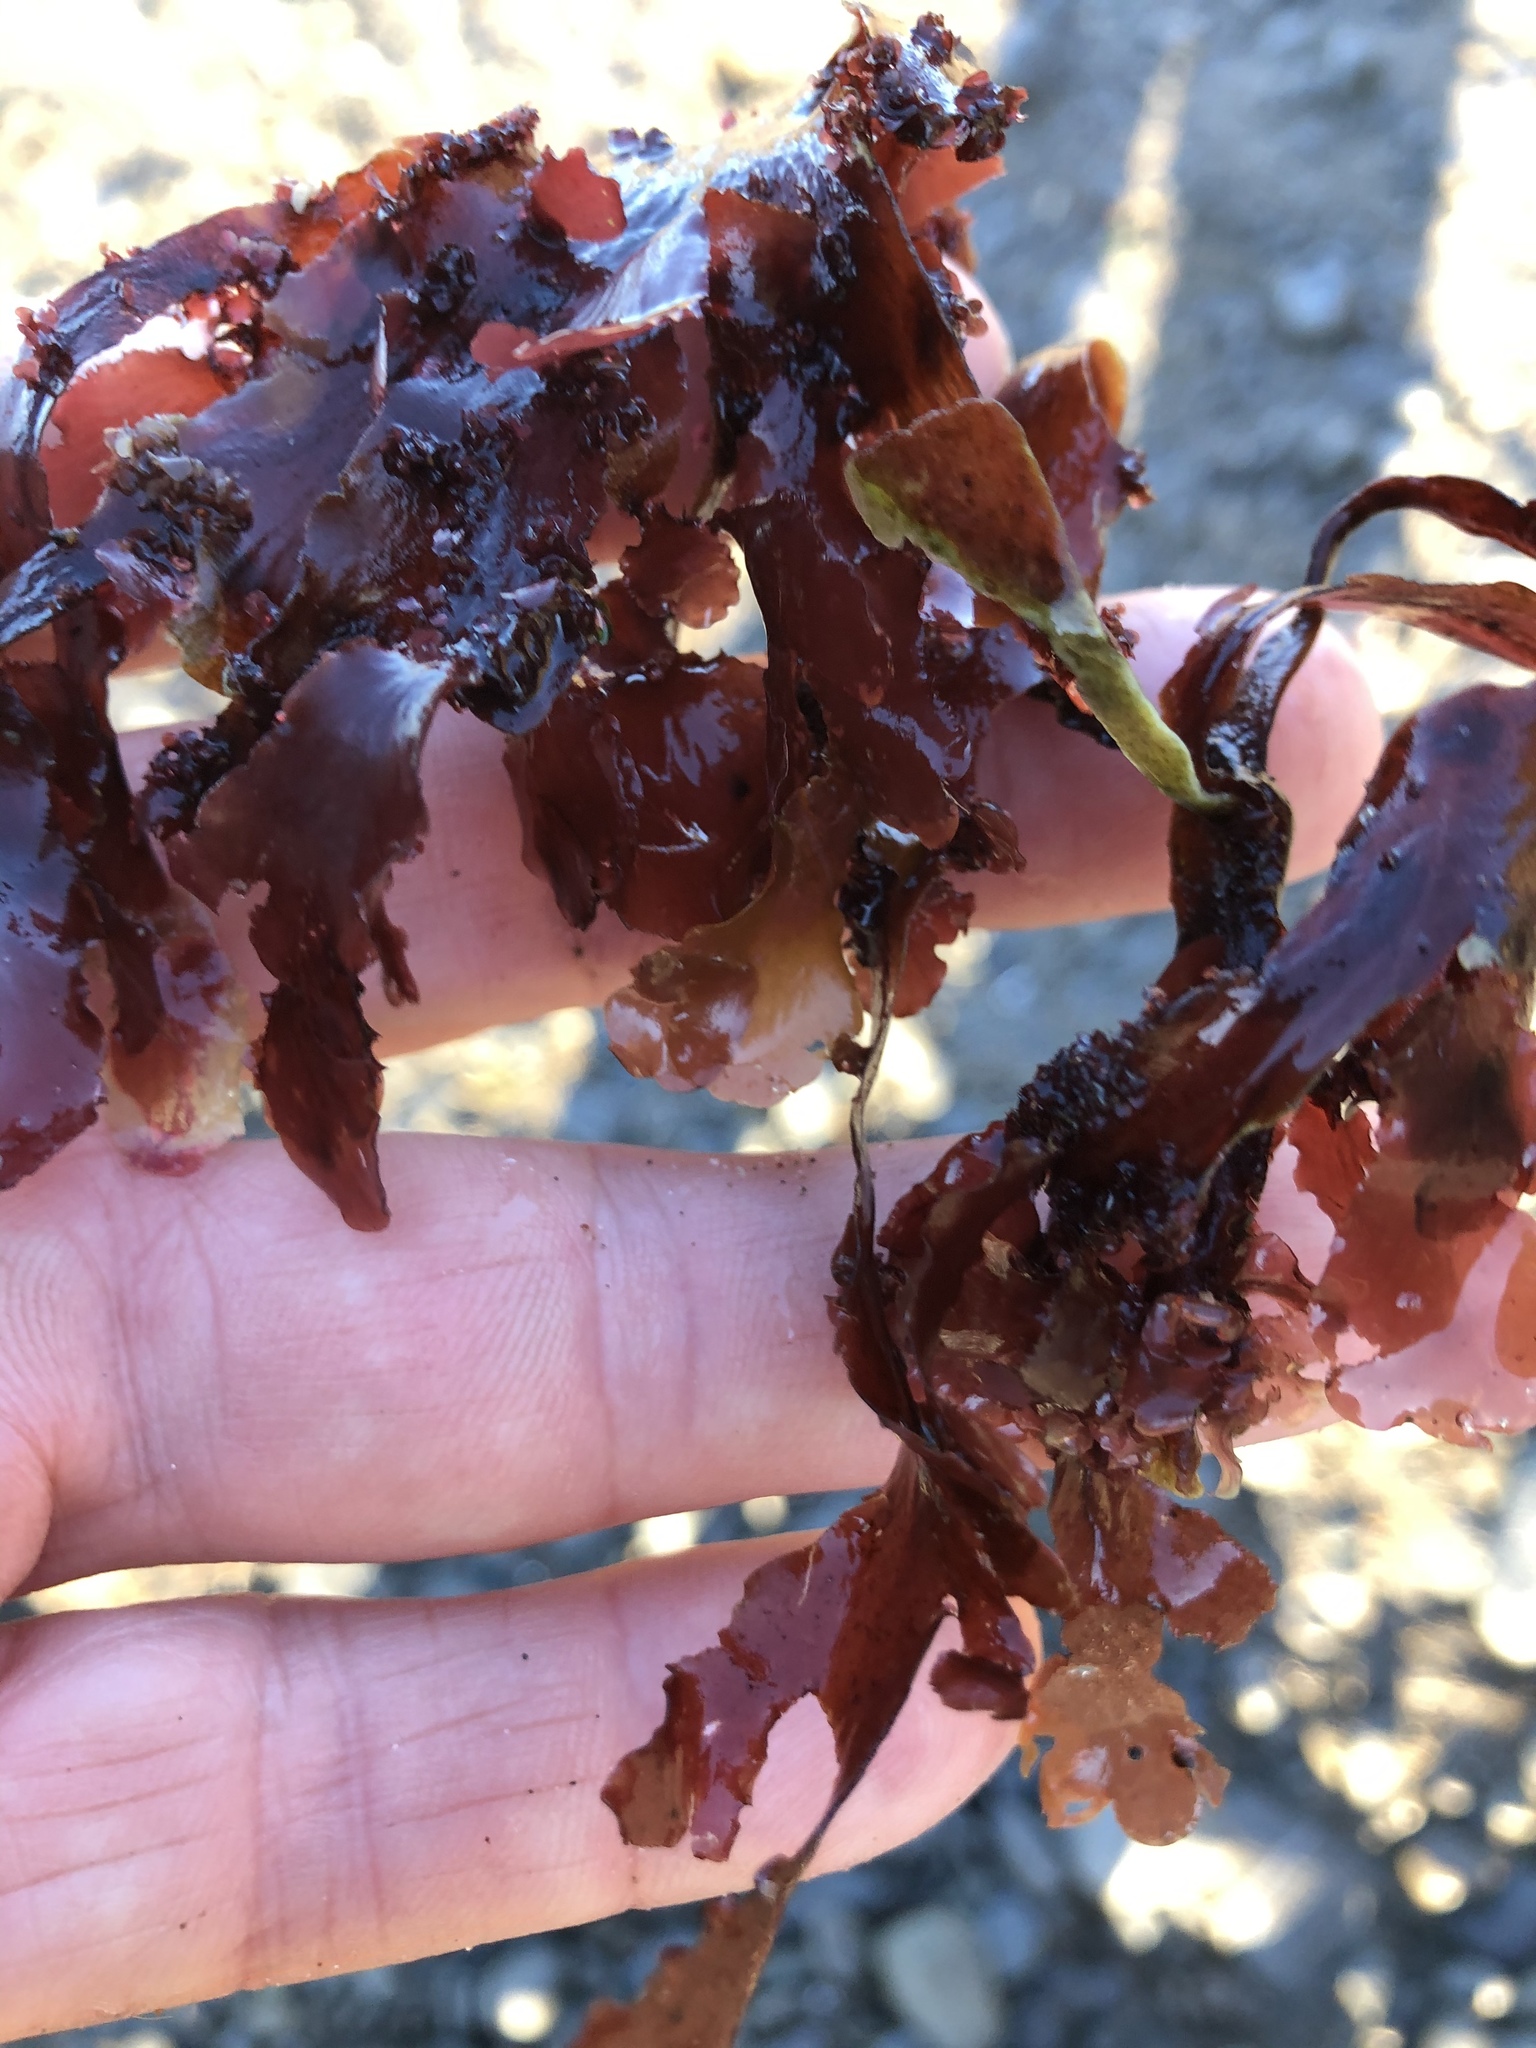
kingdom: Plantae
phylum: Rhodophyta
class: Florideophyceae
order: Ceramiales
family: Delesseriaceae
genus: Cryptopleura
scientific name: Cryptopleura ruprechtiana
